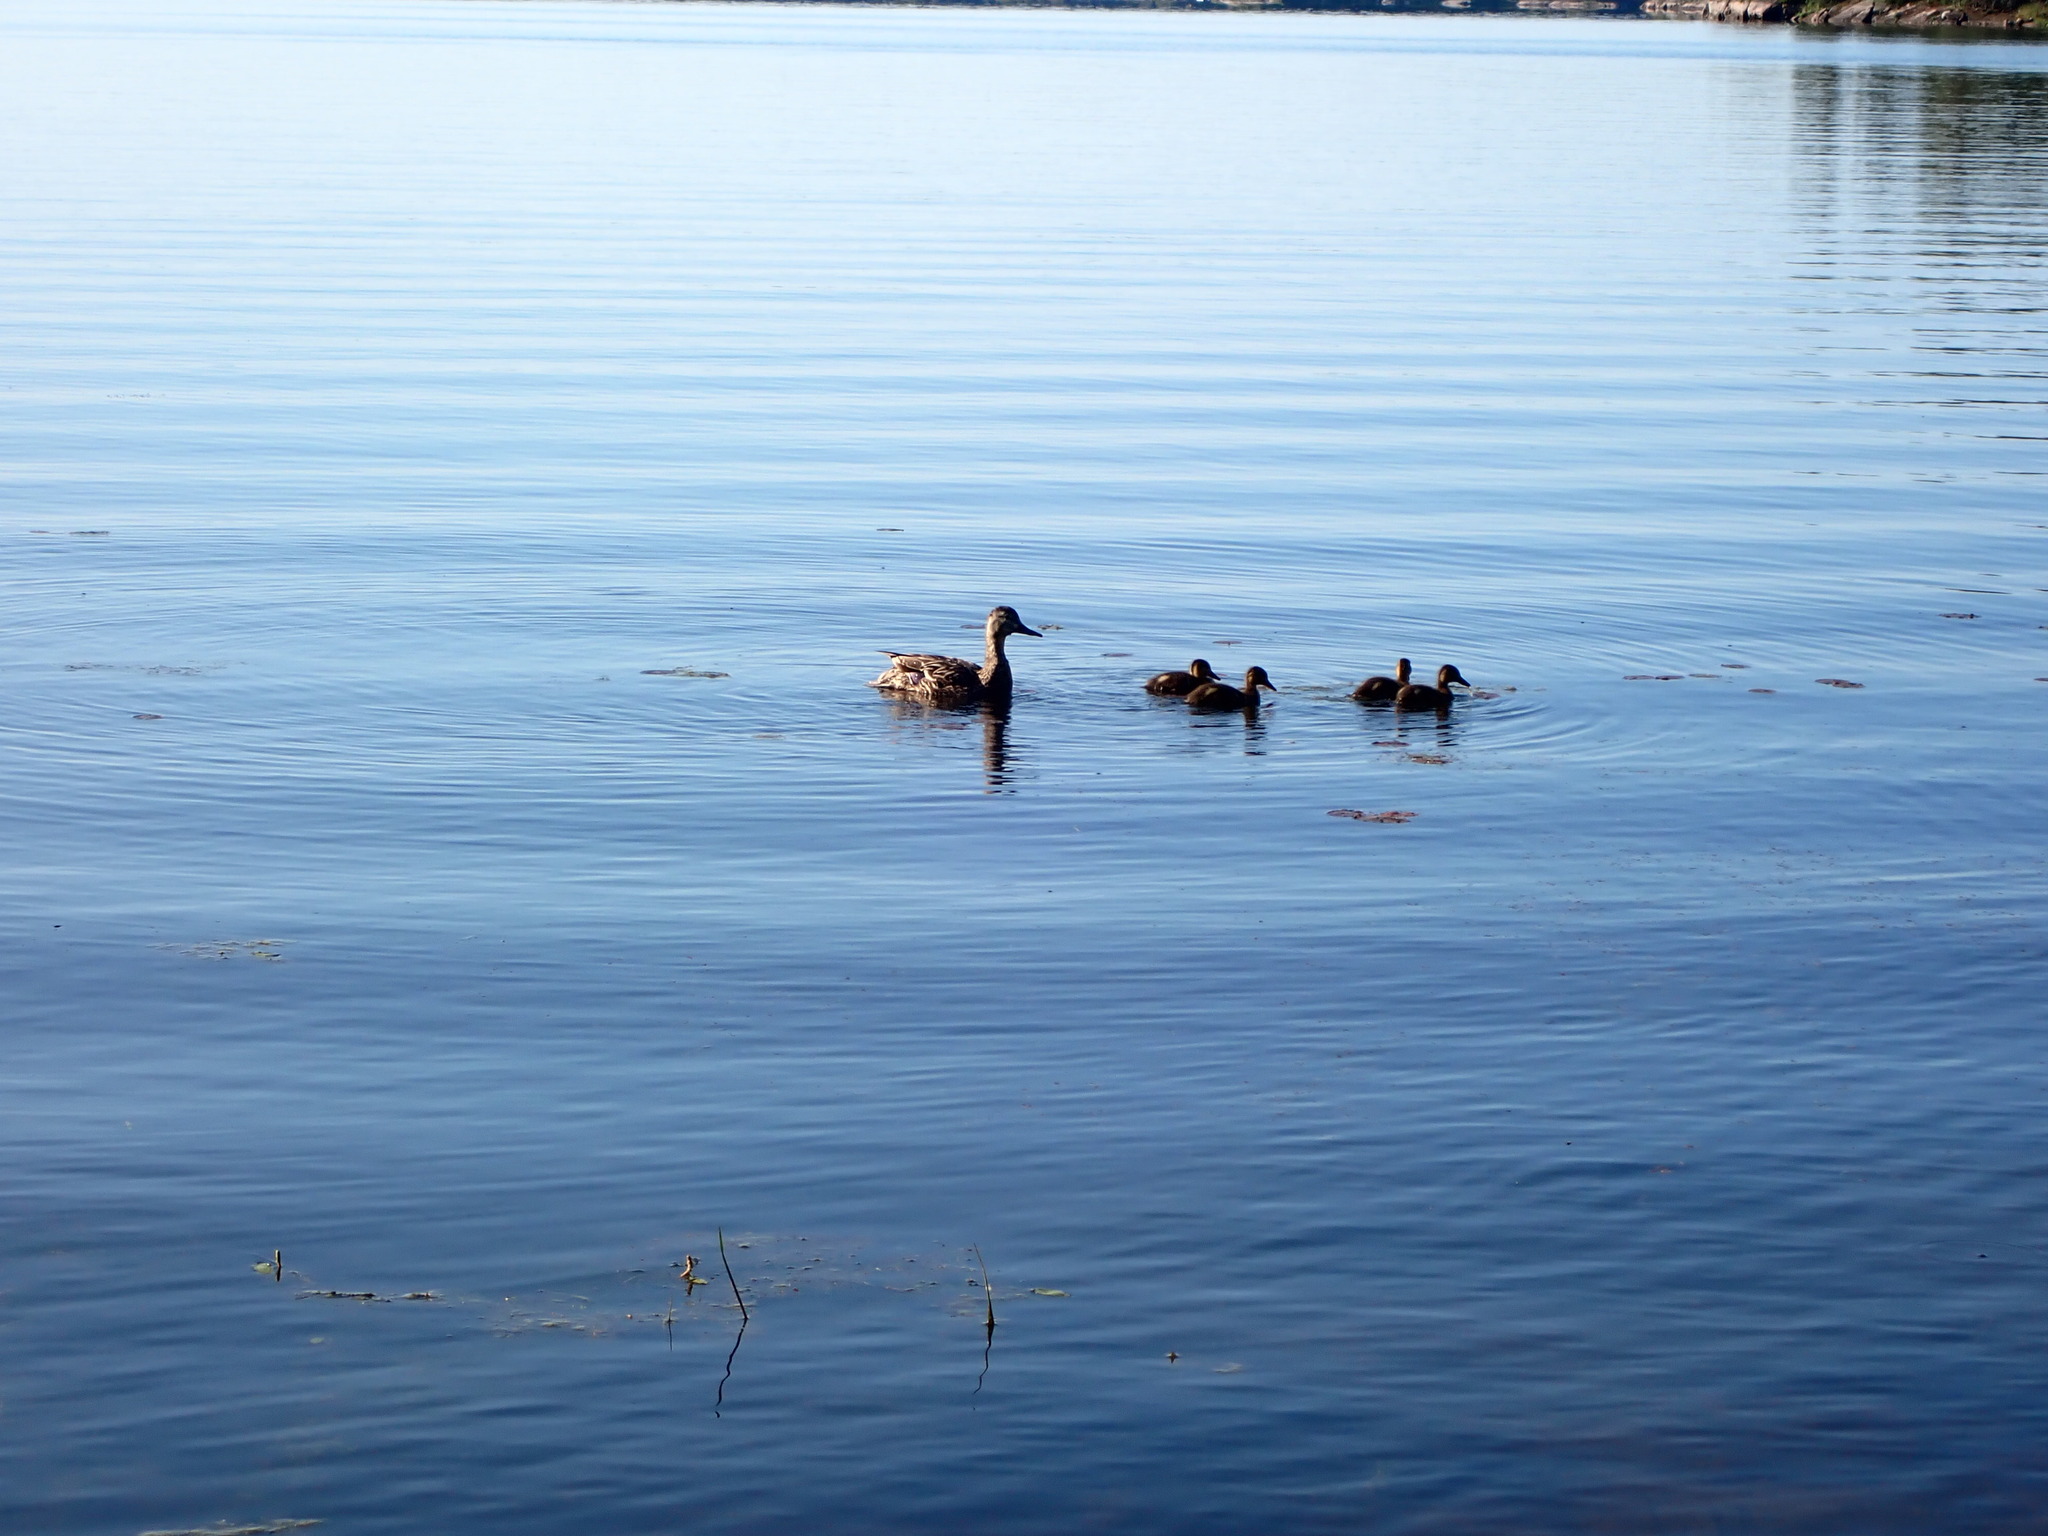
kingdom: Animalia
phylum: Chordata
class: Aves
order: Anseriformes
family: Anatidae
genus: Anas
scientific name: Anas platyrhynchos
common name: Mallard
